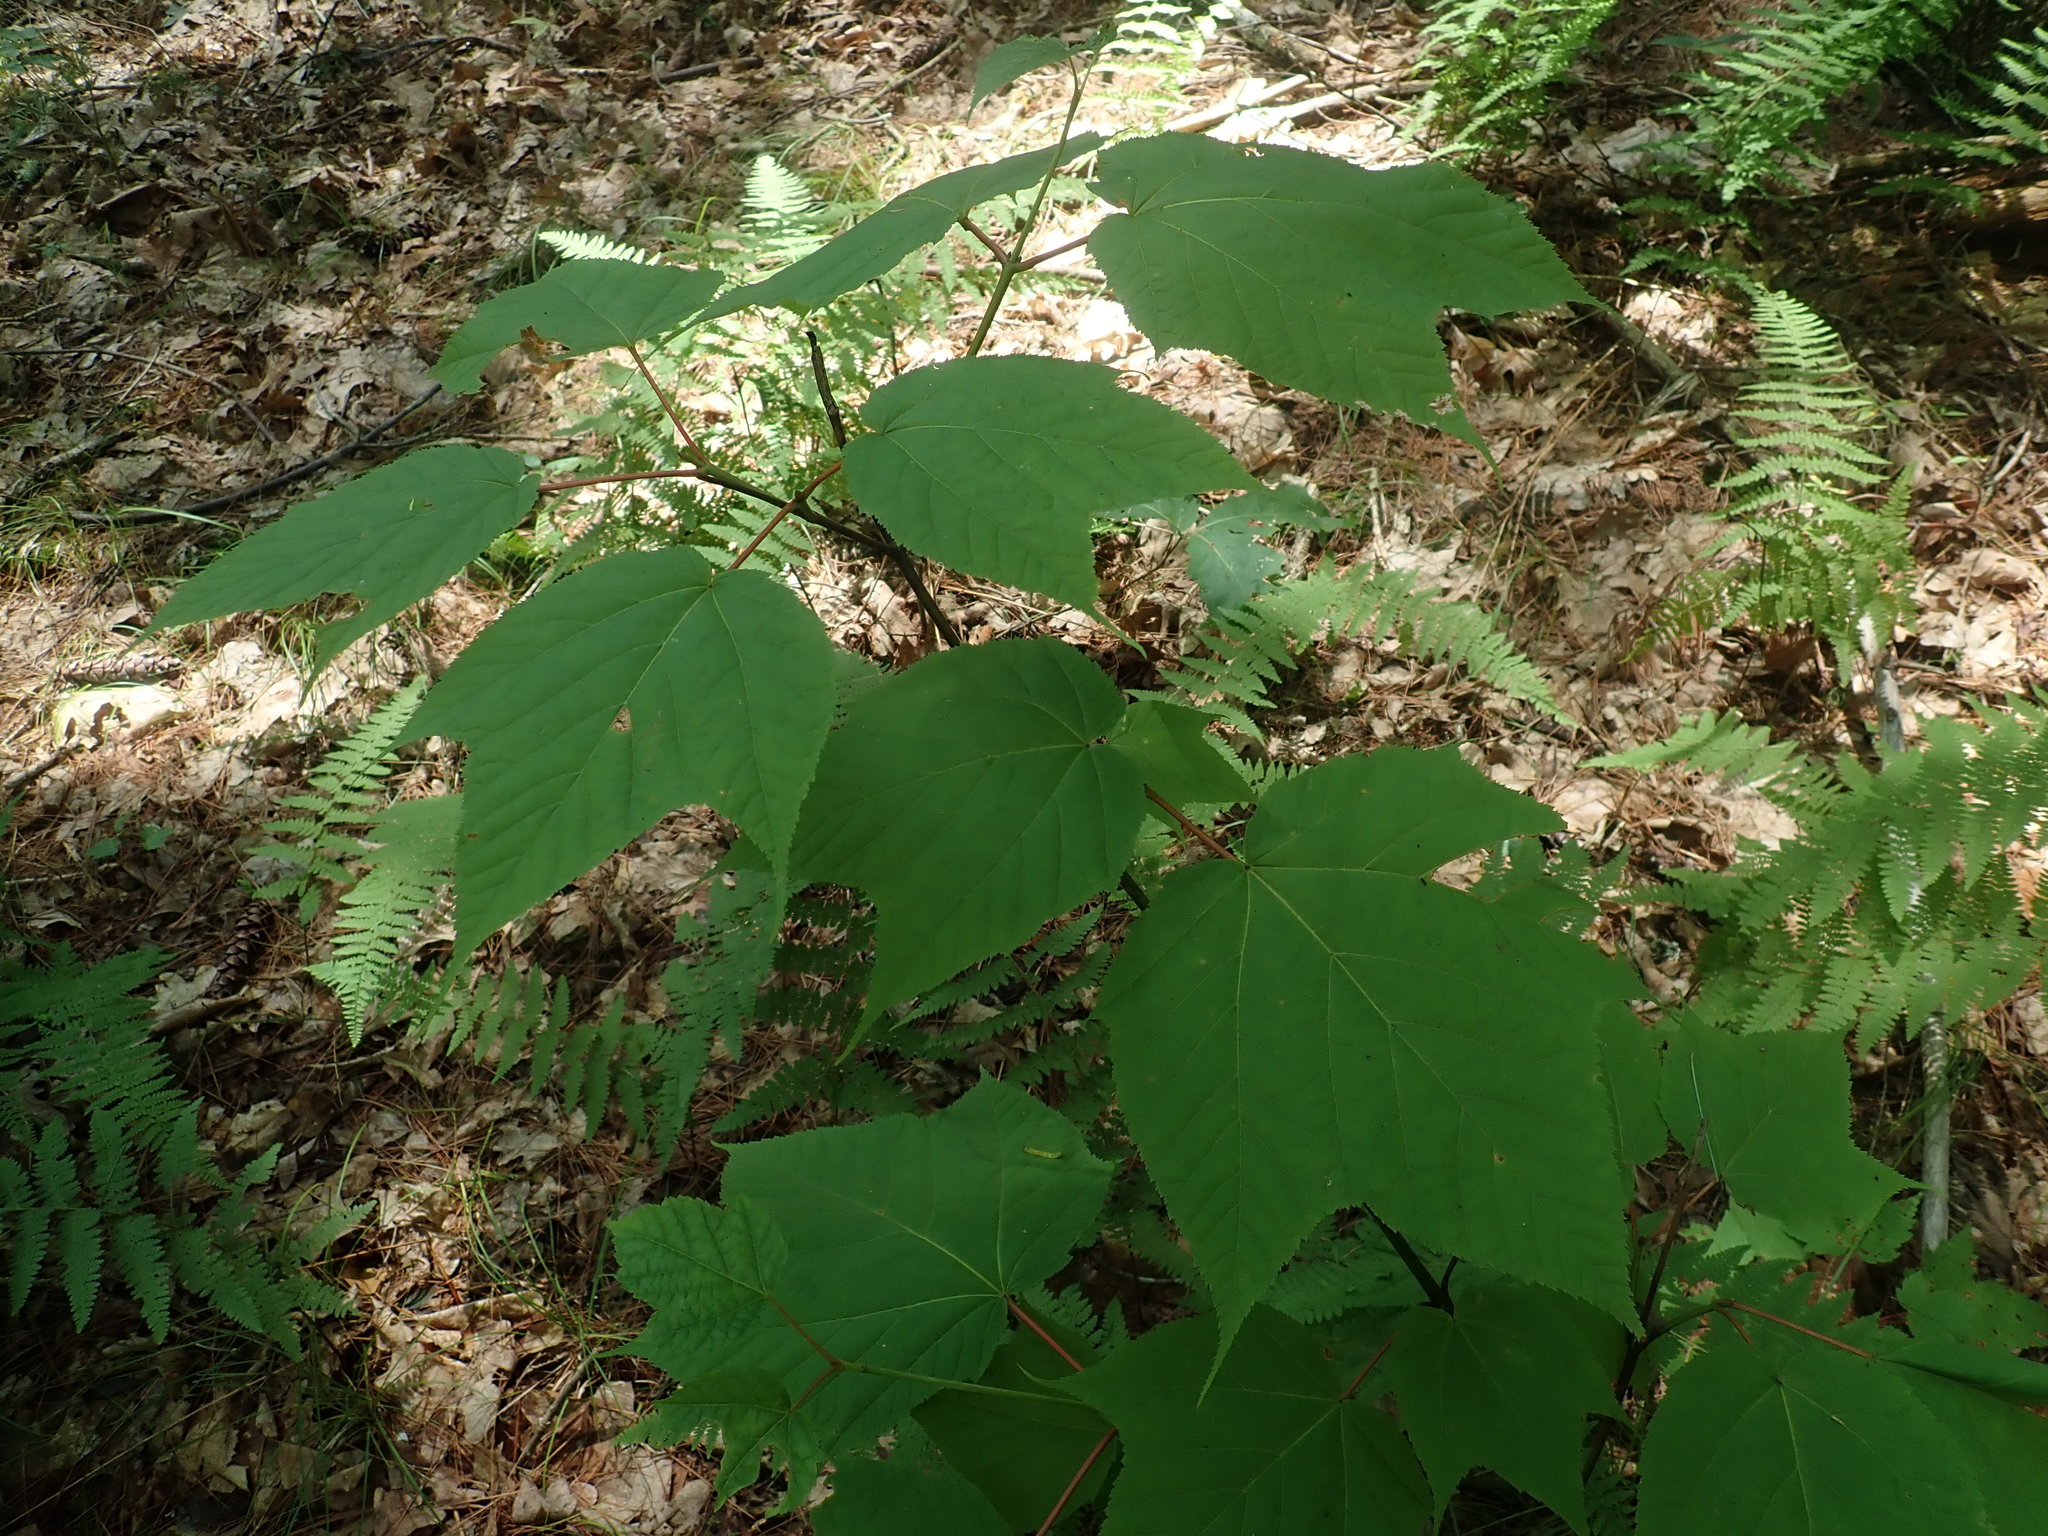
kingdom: Plantae
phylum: Tracheophyta
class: Magnoliopsida
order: Sapindales
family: Sapindaceae
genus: Acer
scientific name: Acer pensylvanicum
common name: Moosewood
